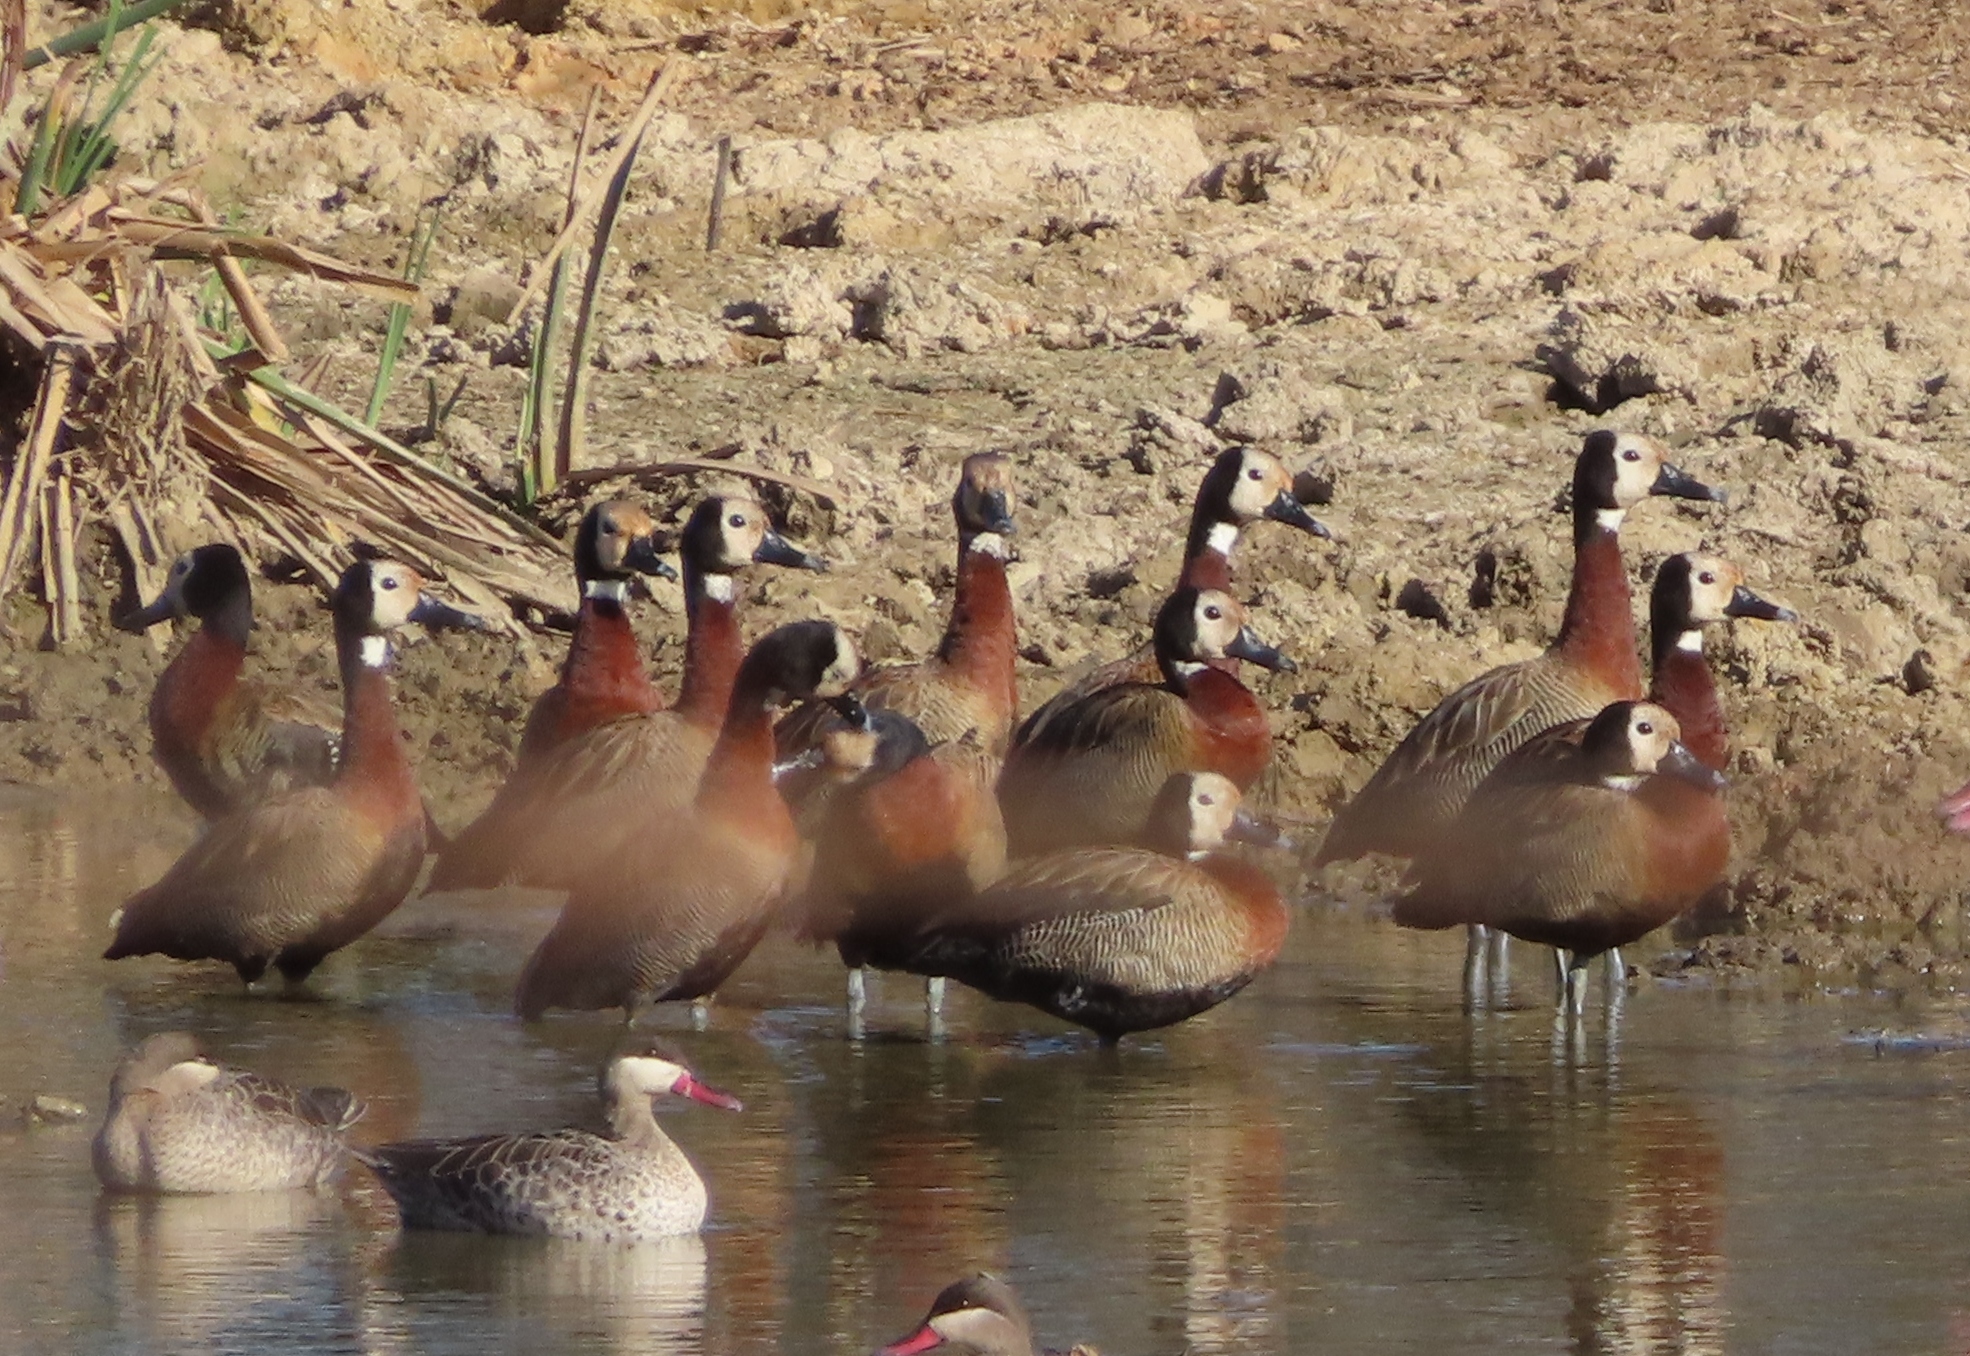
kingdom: Animalia
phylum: Chordata
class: Aves
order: Anseriformes
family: Anatidae
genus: Dendrocygna
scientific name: Dendrocygna viduata
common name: White-faced whistling duck
